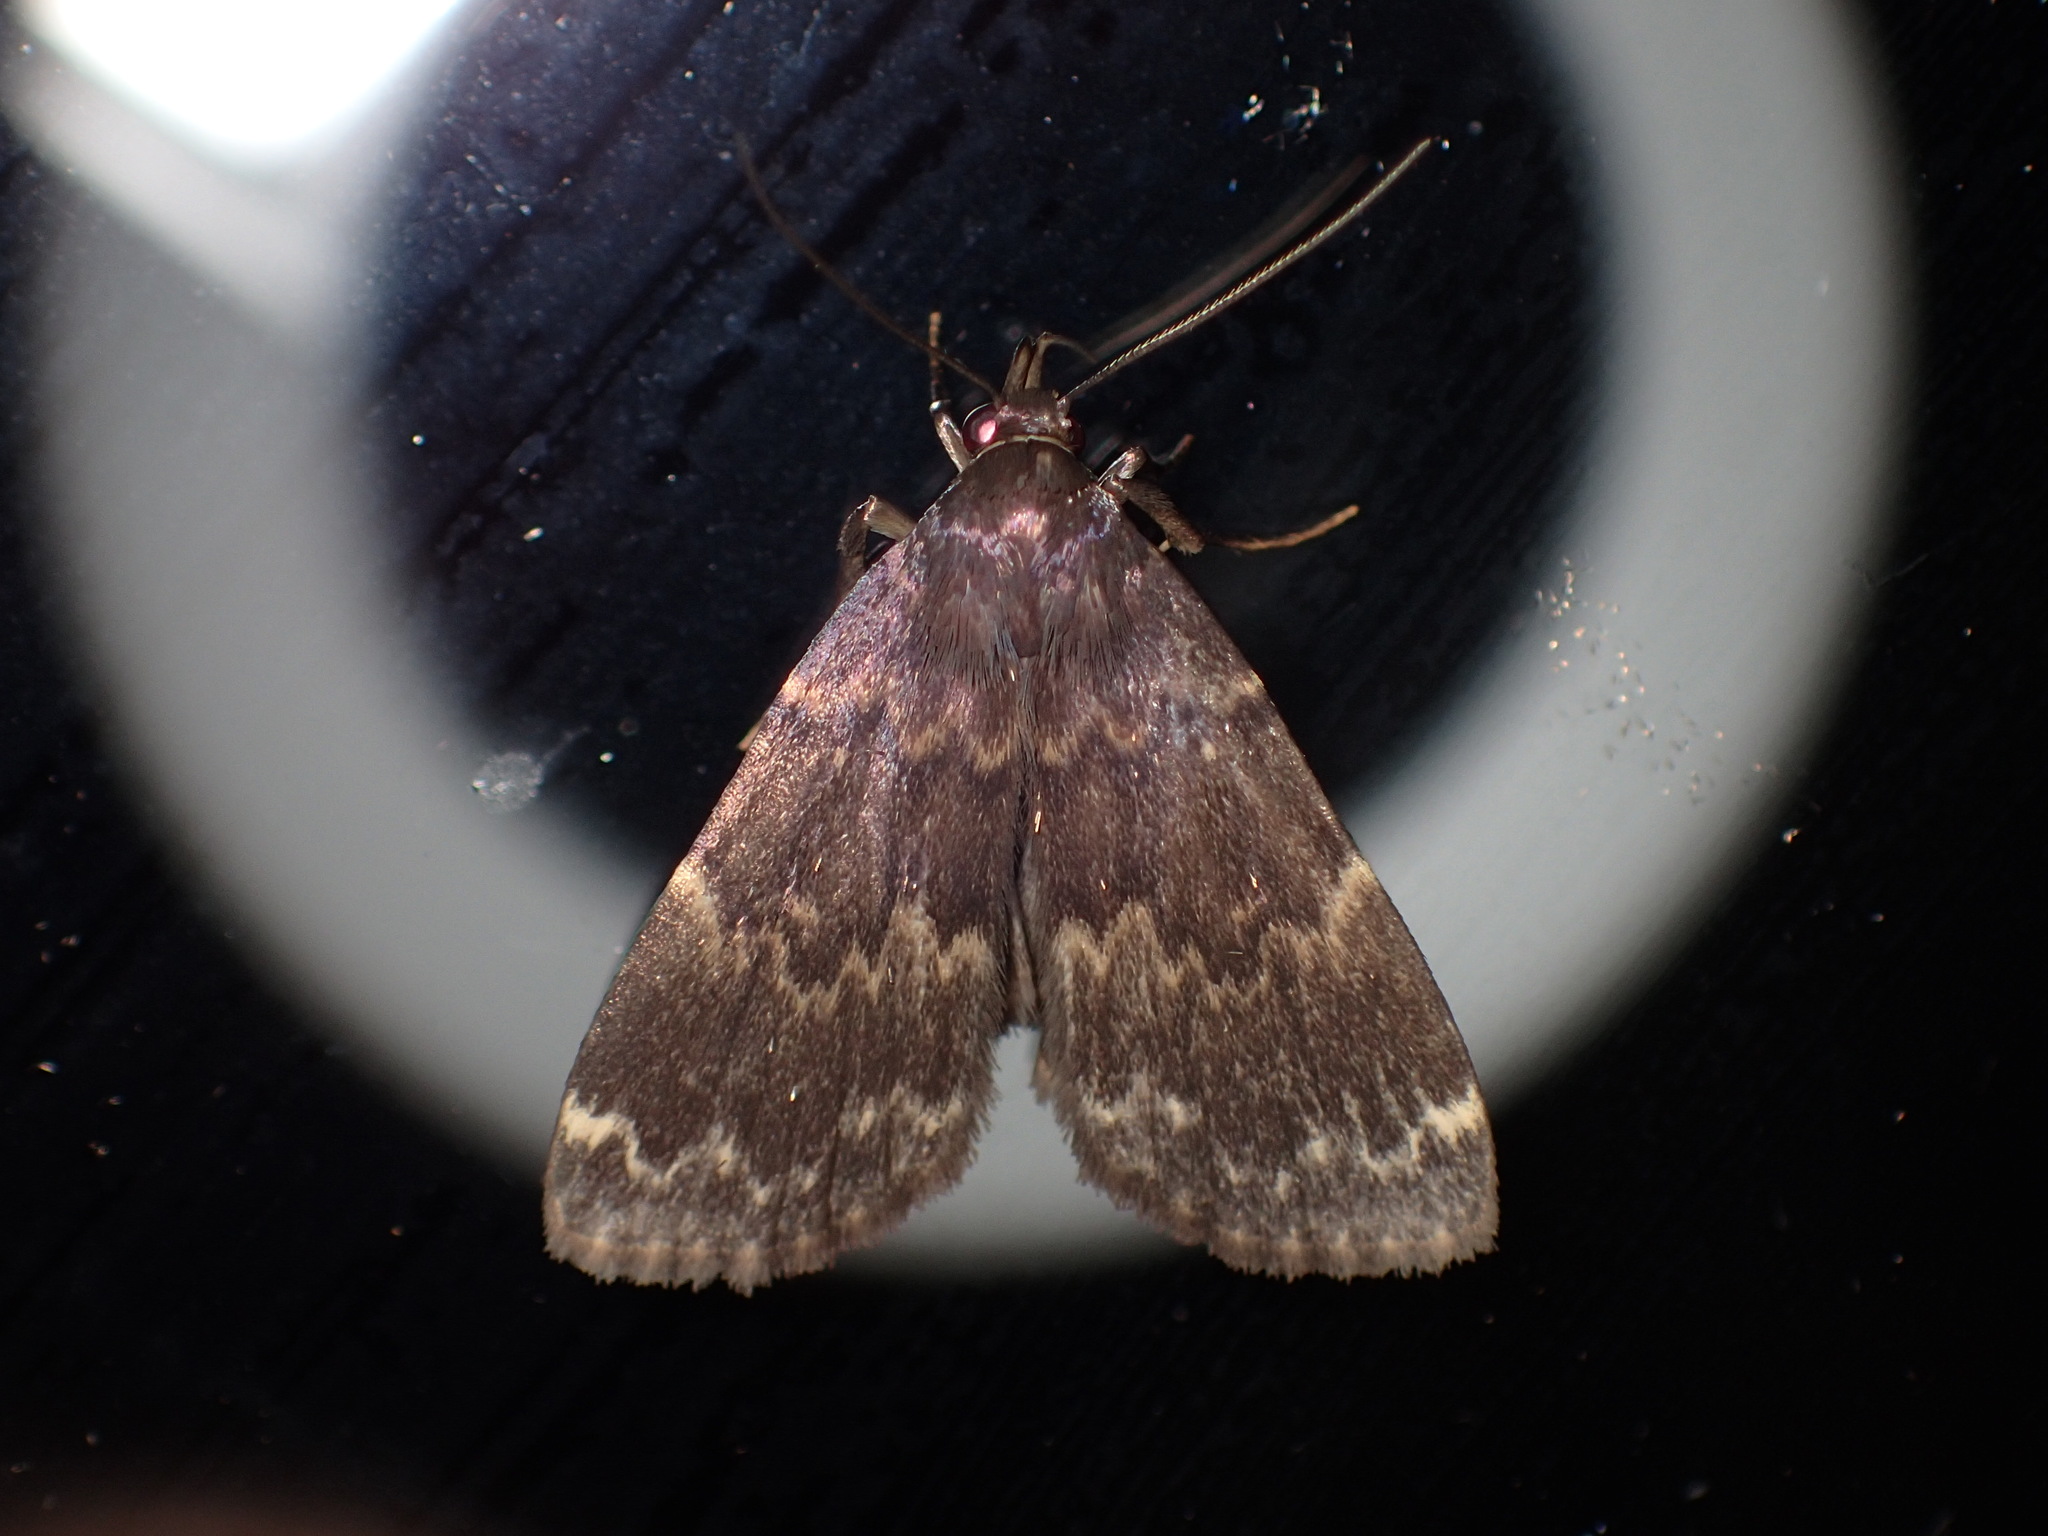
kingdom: Animalia
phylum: Arthropoda
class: Insecta
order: Lepidoptera
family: Erebidae
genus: Idia
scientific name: Idia lubricalis
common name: Twin-striped tabby
